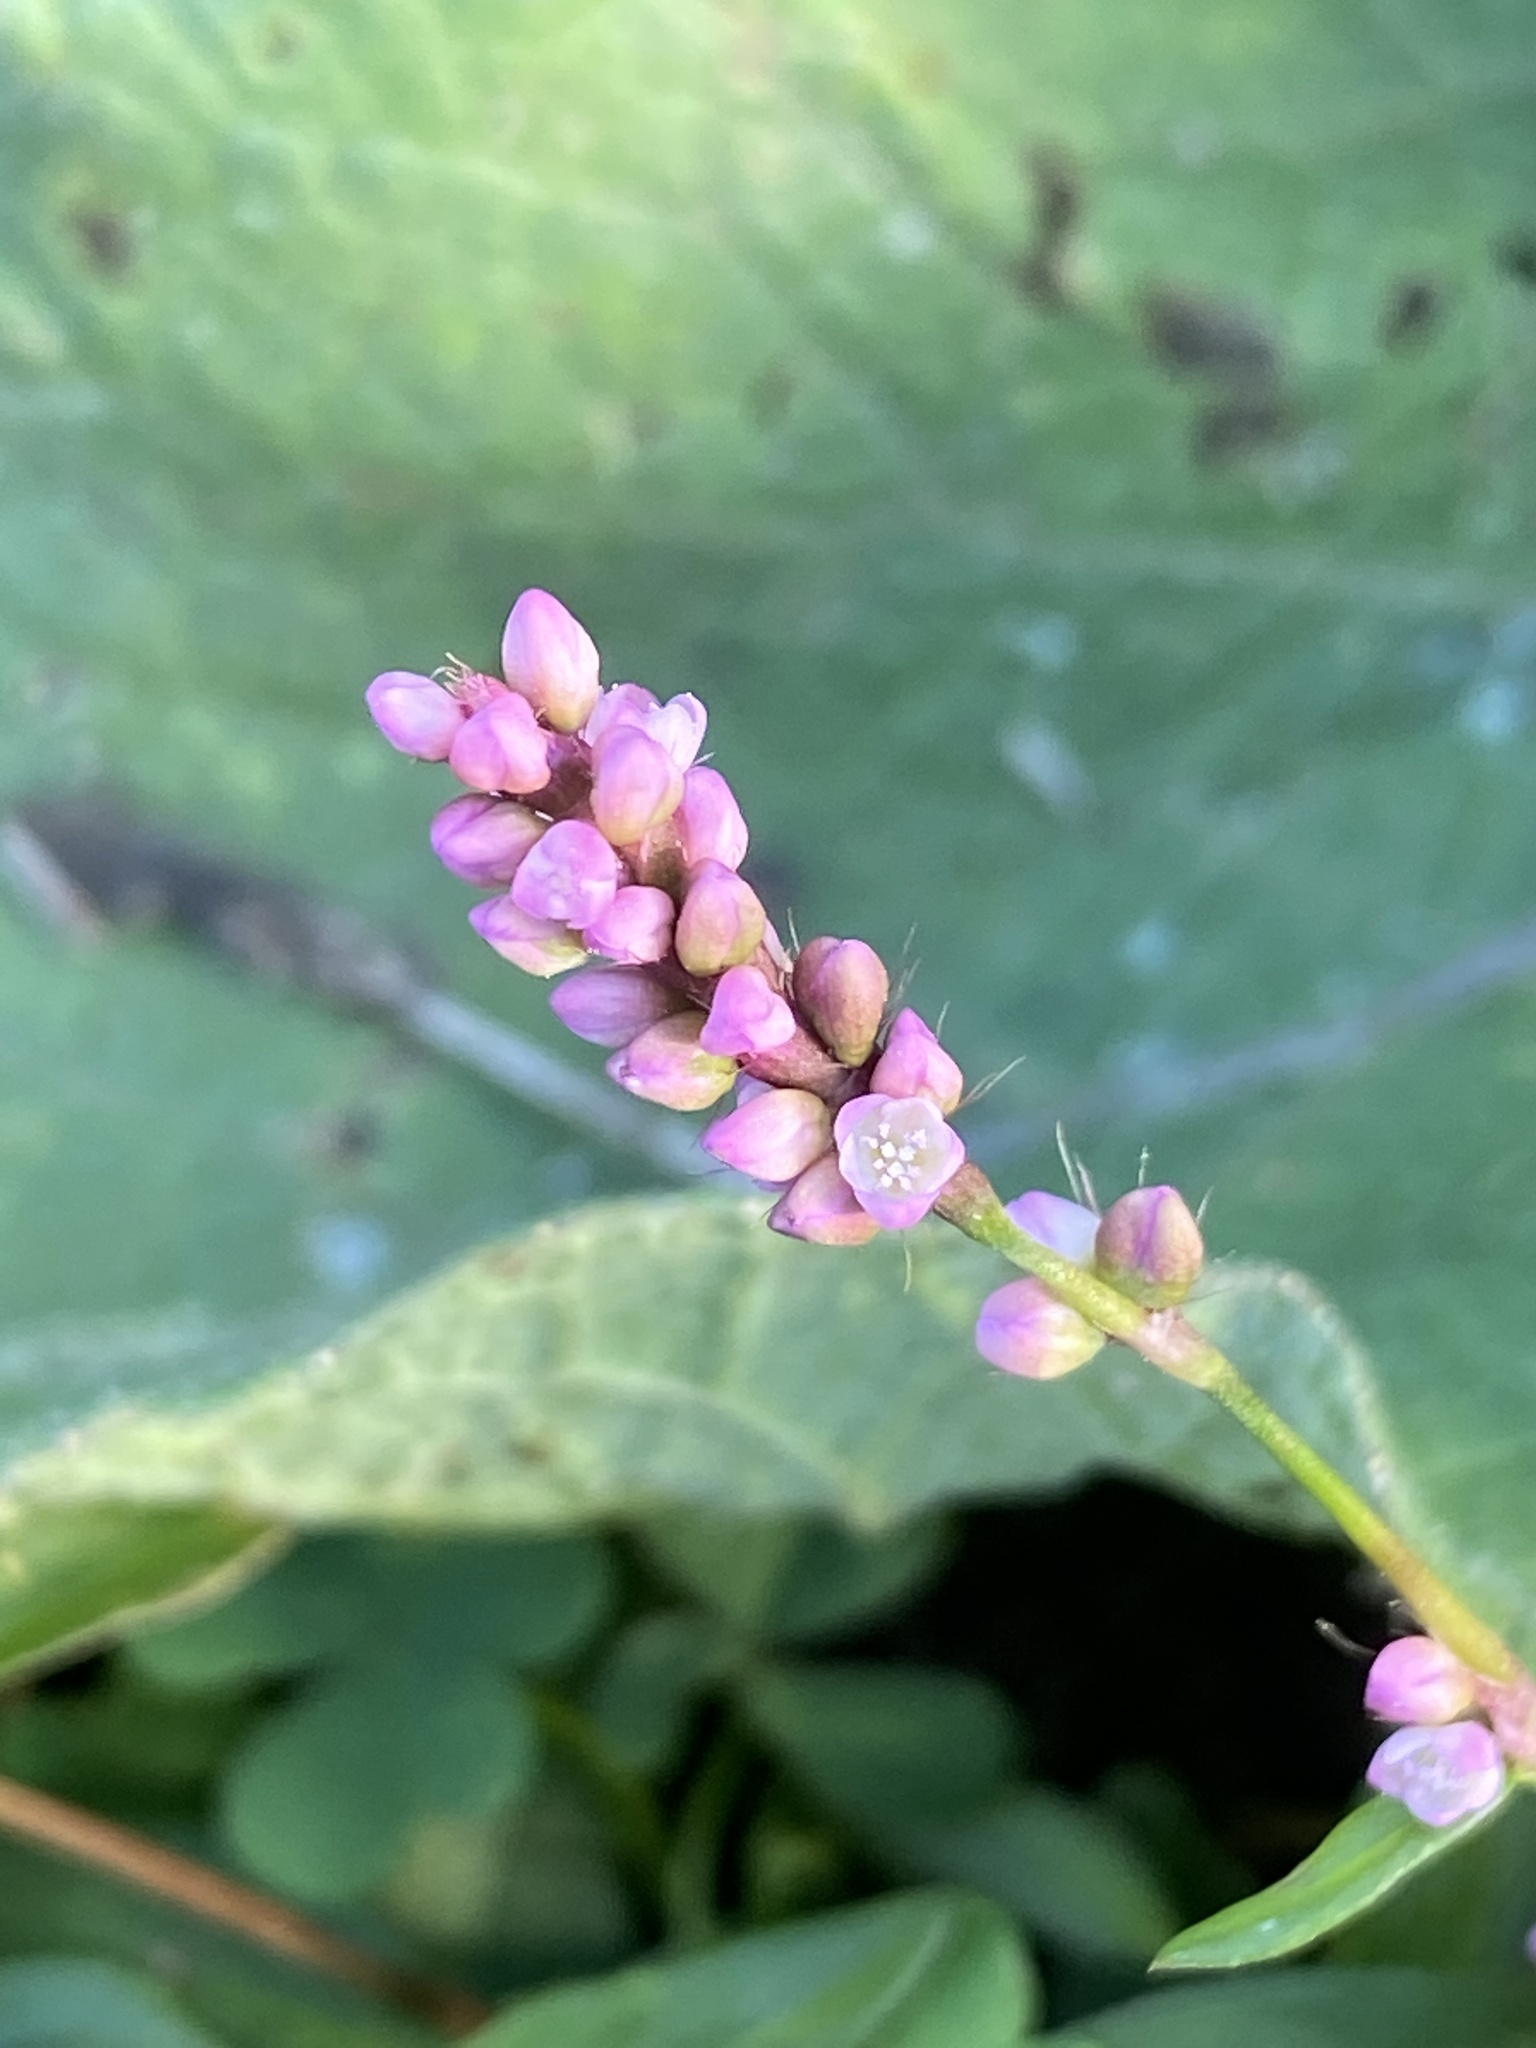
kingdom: Plantae
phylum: Tracheophyta
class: Magnoliopsida
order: Caryophyllales
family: Polygonaceae
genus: Persicaria
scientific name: Persicaria longiseta
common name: Bristly lady's-thumb
